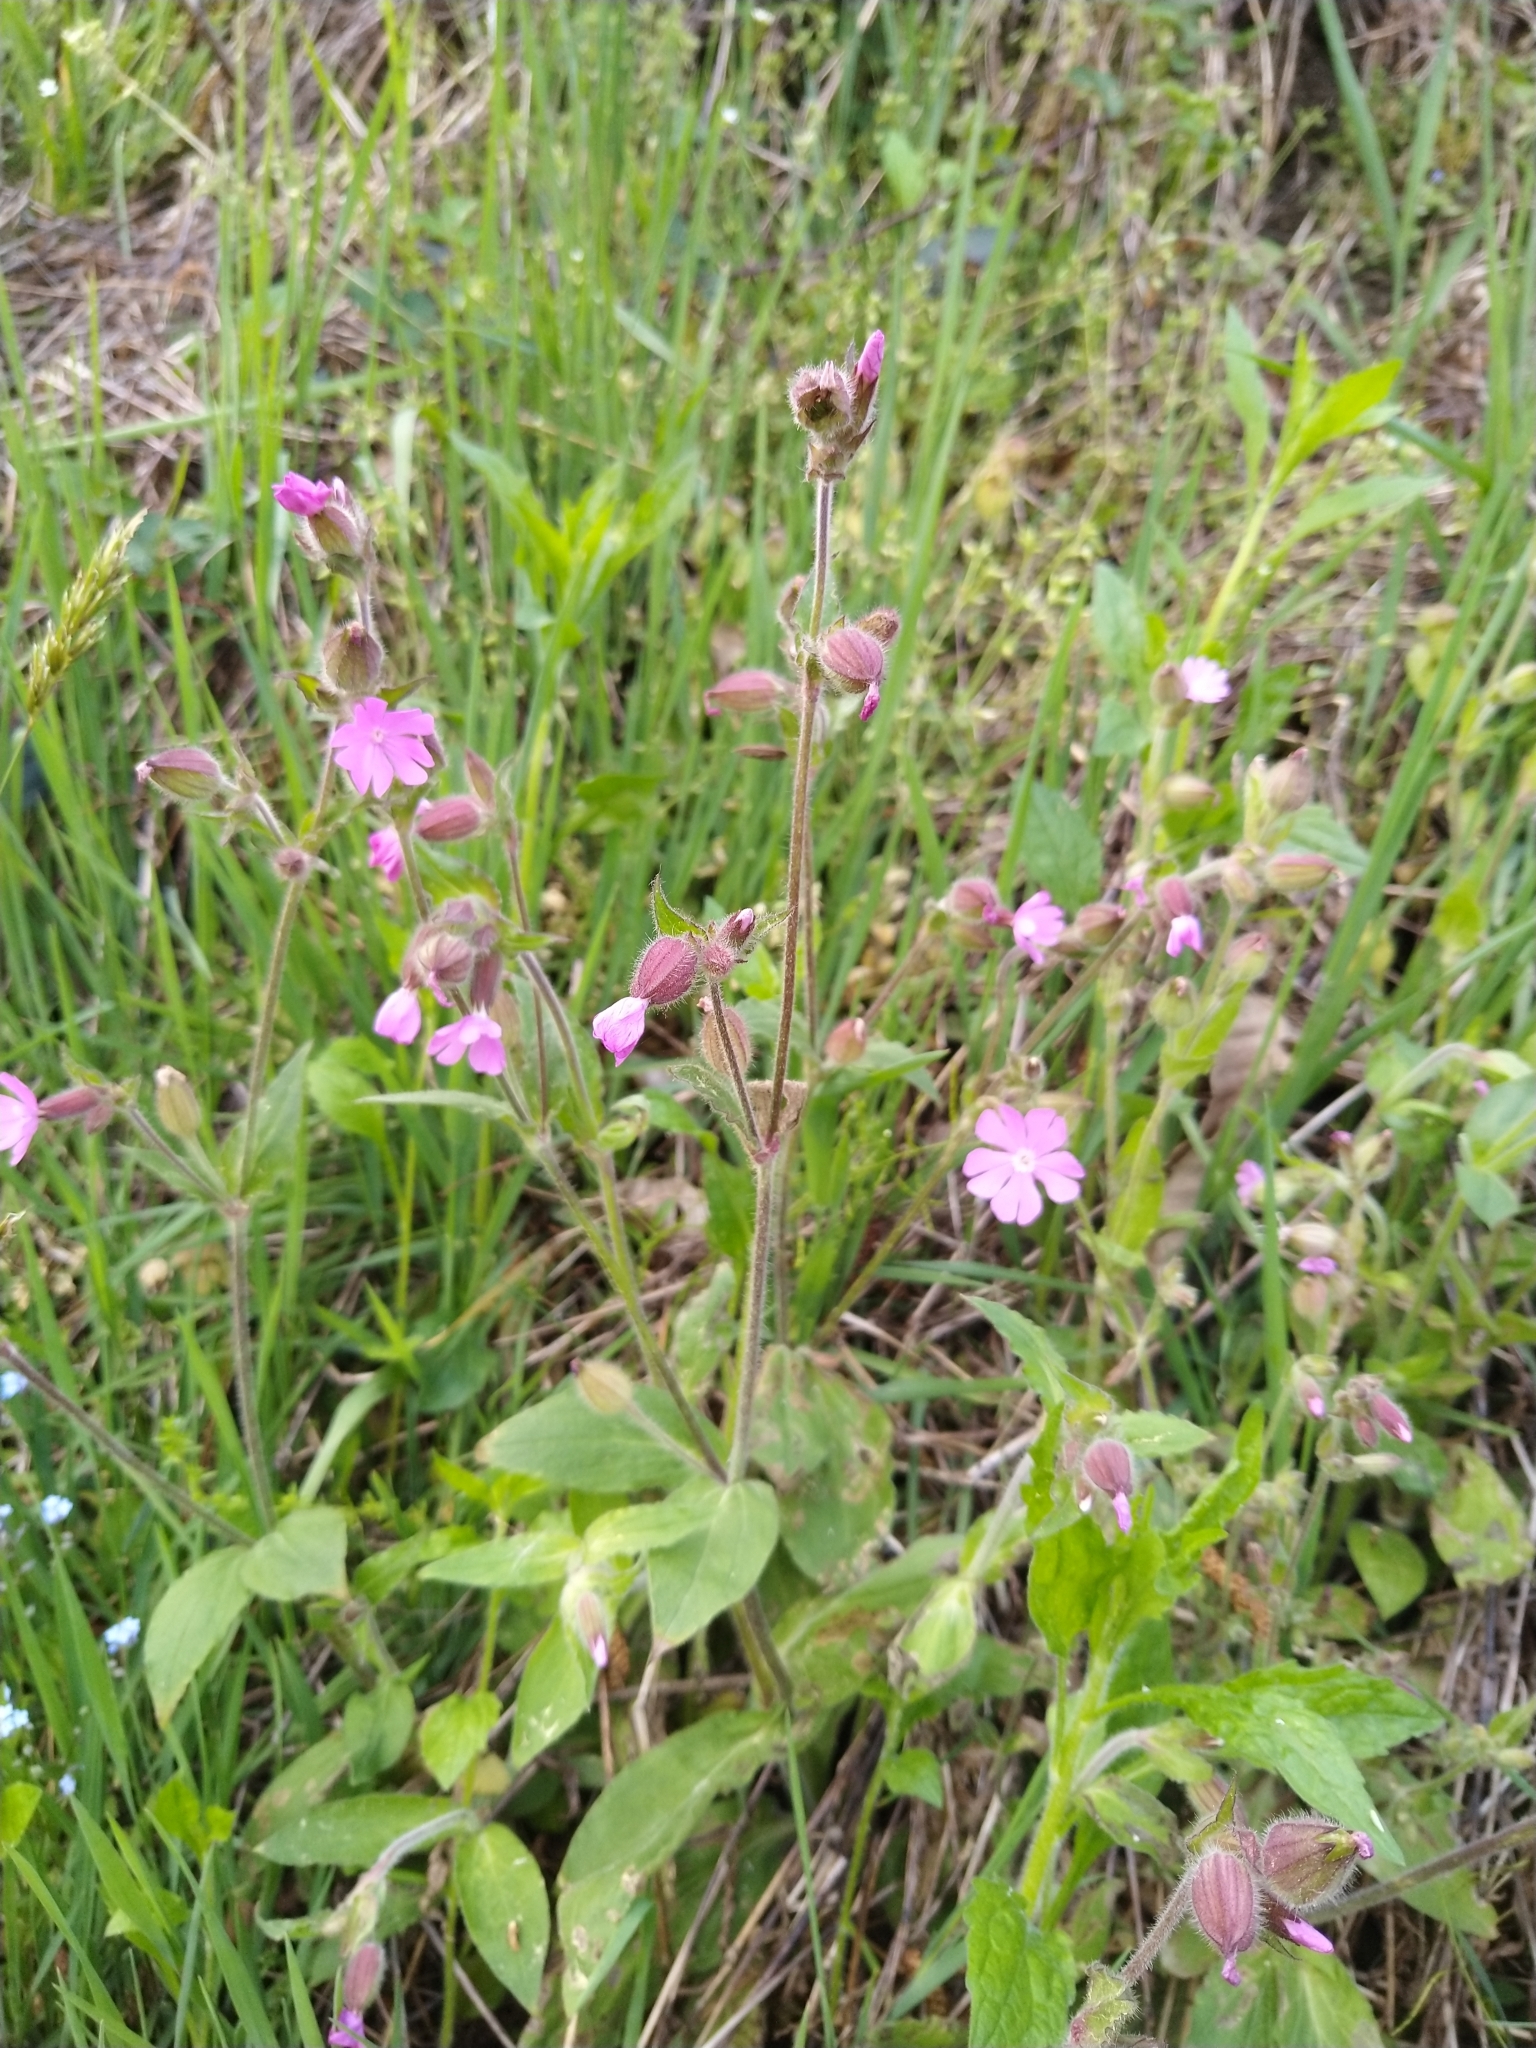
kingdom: Plantae
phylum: Tracheophyta
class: Magnoliopsida
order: Caryophyllales
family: Caryophyllaceae
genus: Silene
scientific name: Silene dioica
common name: Red campion
